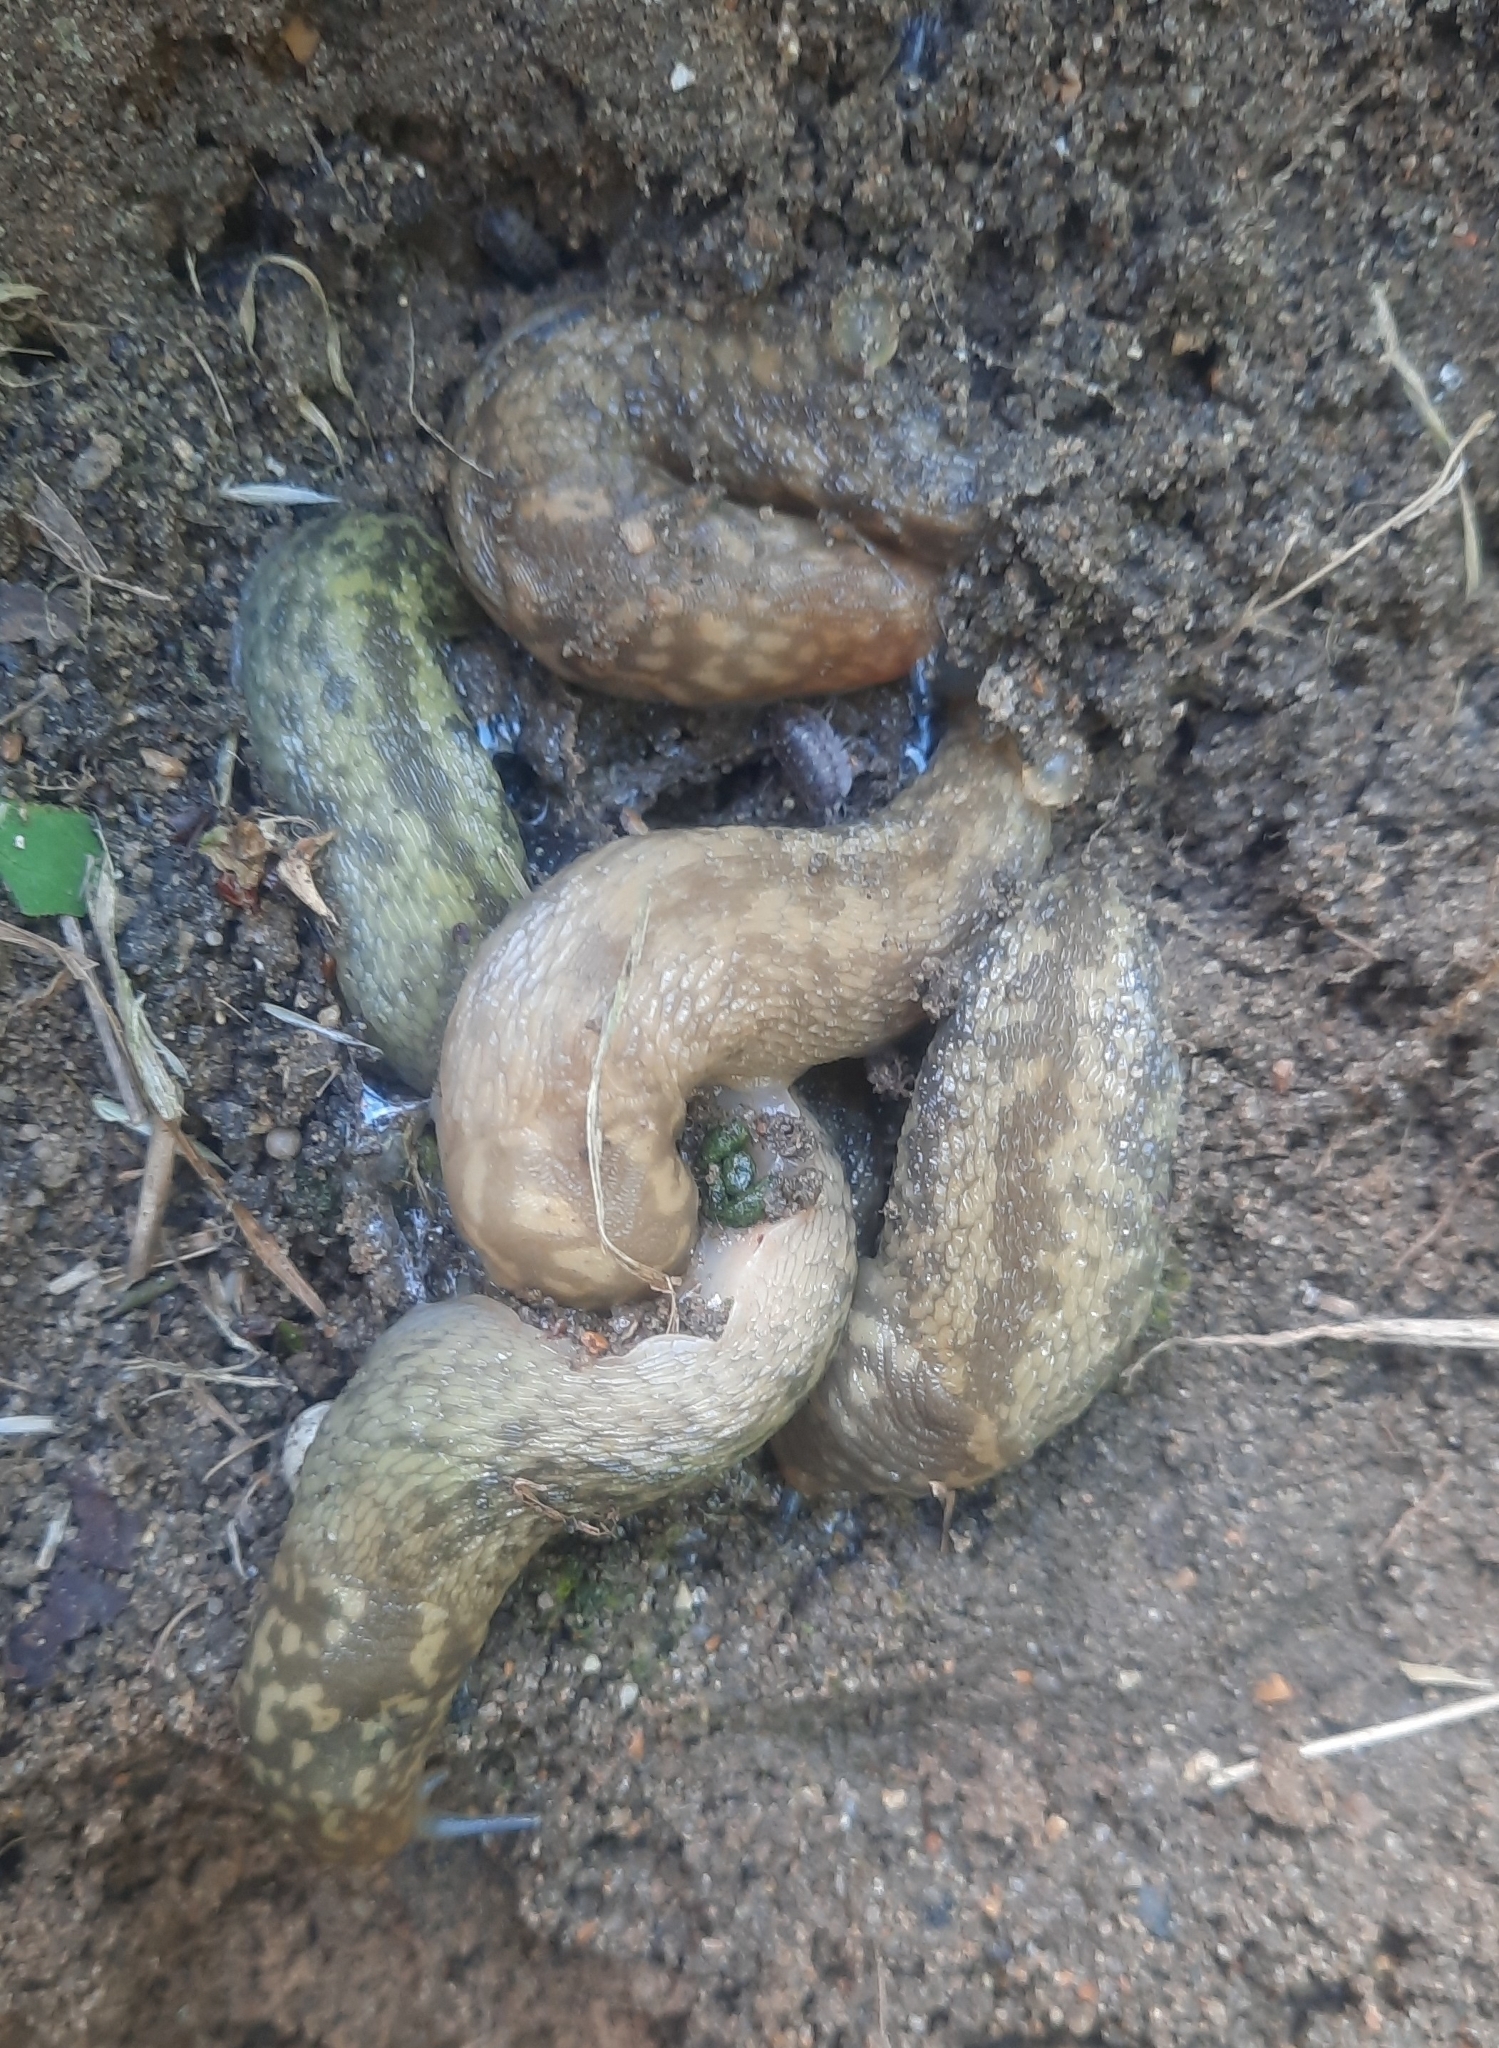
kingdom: Animalia
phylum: Mollusca
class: Gastropoda
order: Stylommatophora
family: Limacidae
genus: Limacus
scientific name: Limacus maculatus
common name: Irish yellow slug
